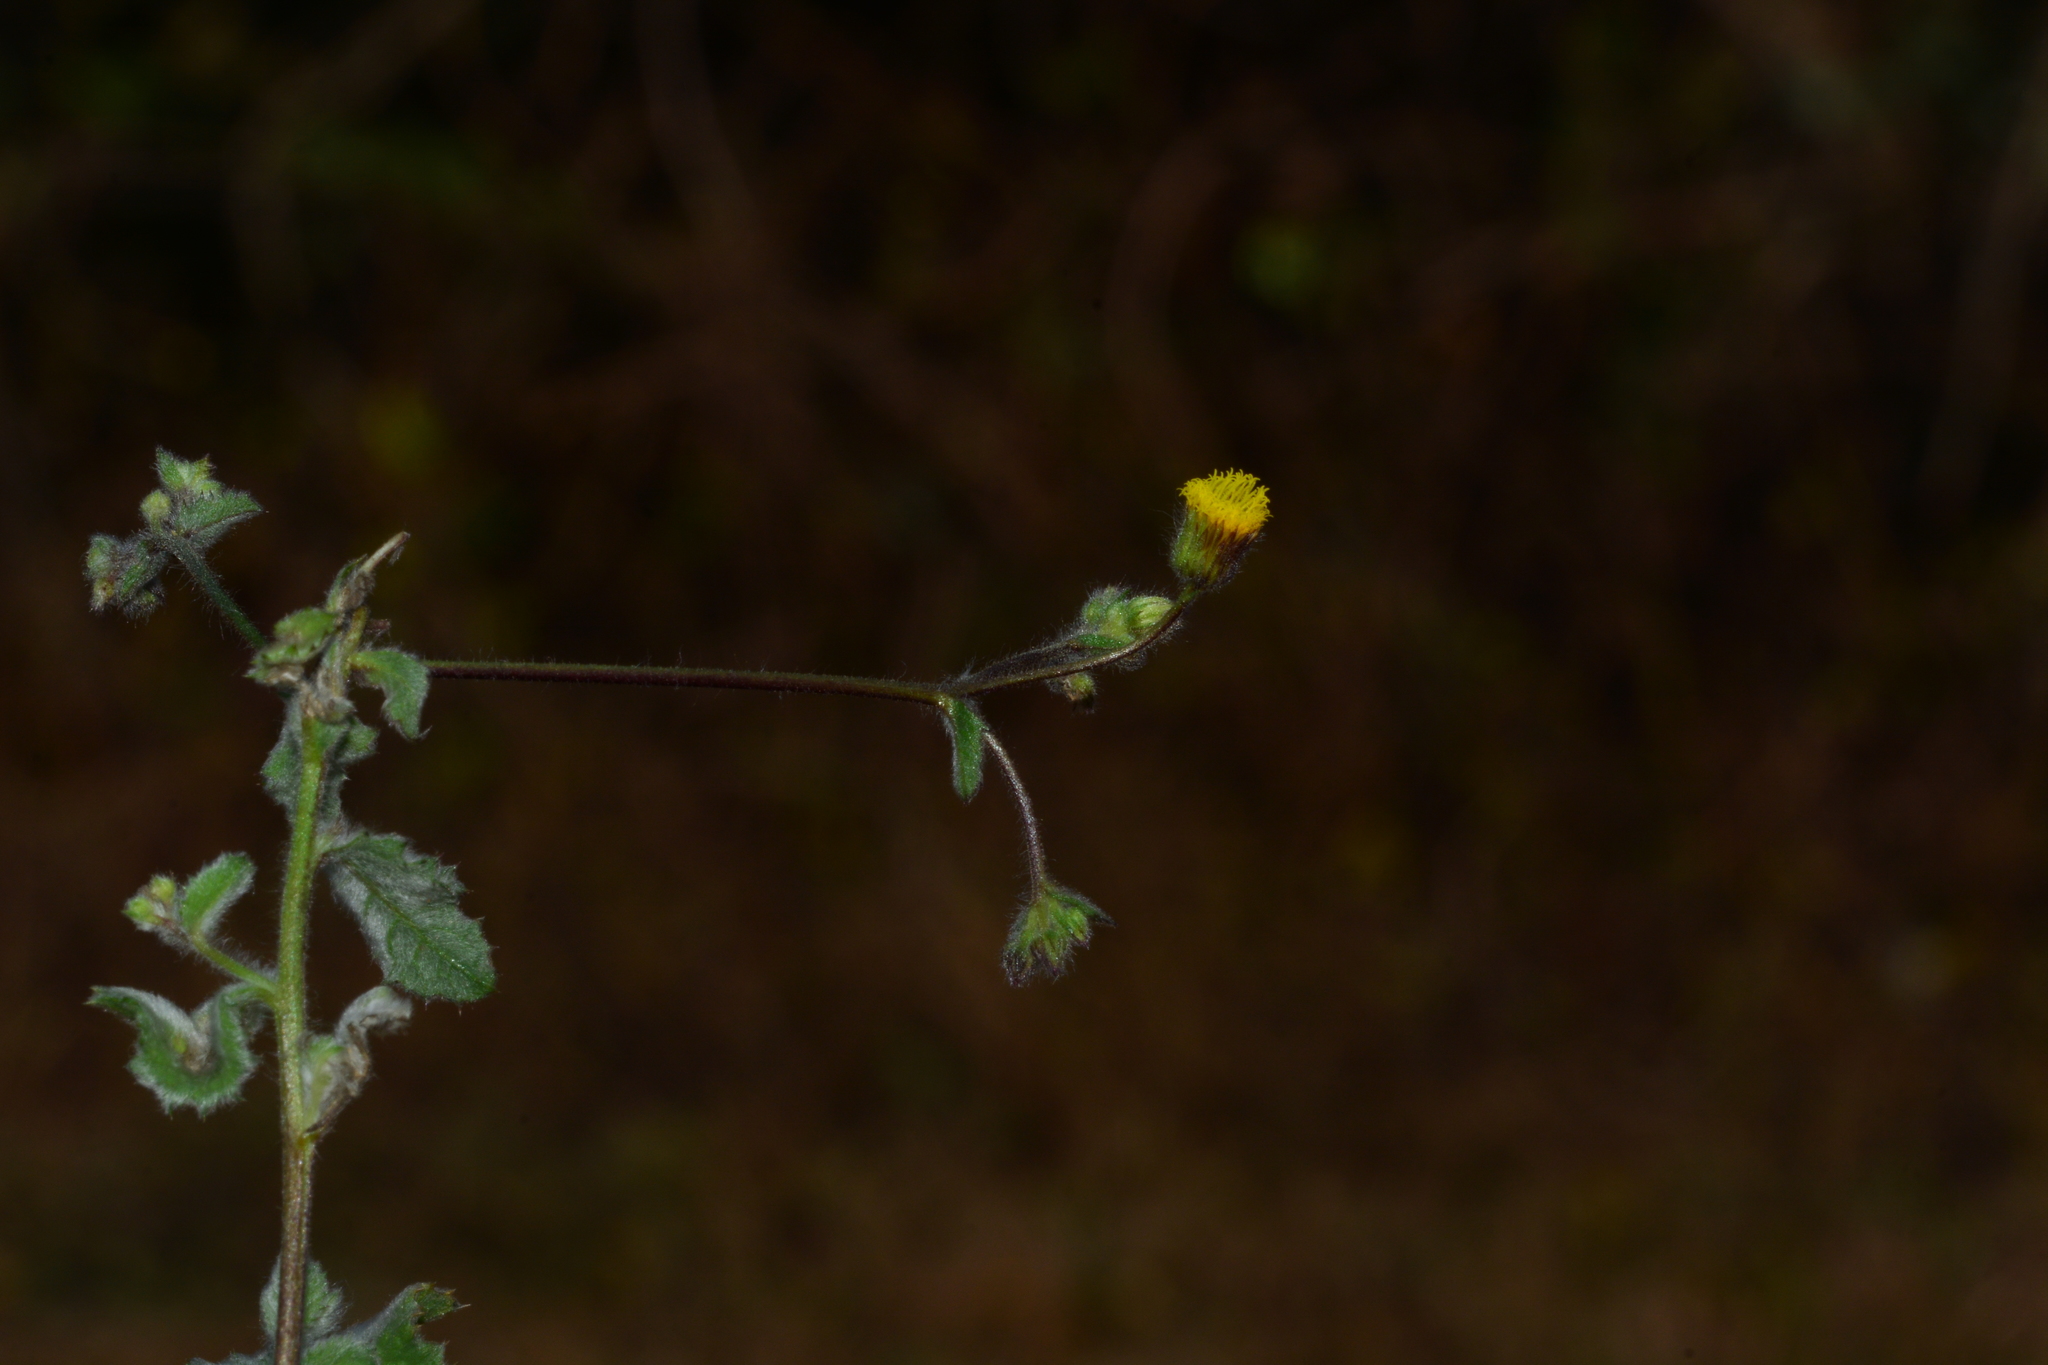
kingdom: Plantae
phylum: Tracheophyta
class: Magnoliopsida
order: Asterales
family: Asteraceae
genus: Blumea
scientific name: Blumea oxyodonta
